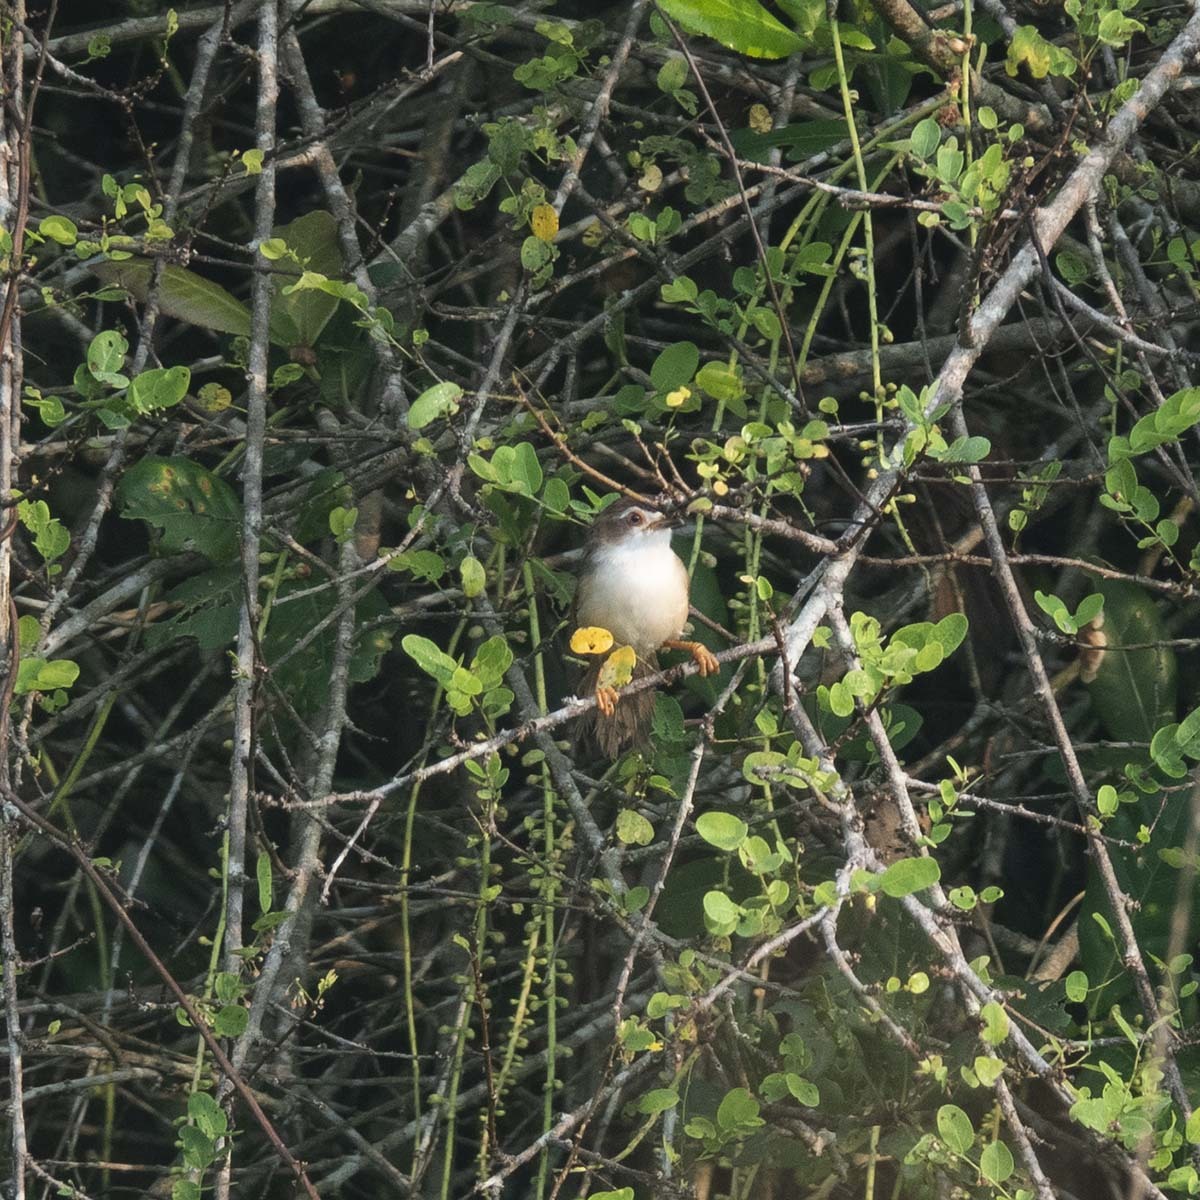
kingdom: Animalia
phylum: Chordata
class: Aves
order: Passeriformes
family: Sylviidae
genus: Chrysomma
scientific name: Chrysomma sinense
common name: Yellow-eyed babbler
